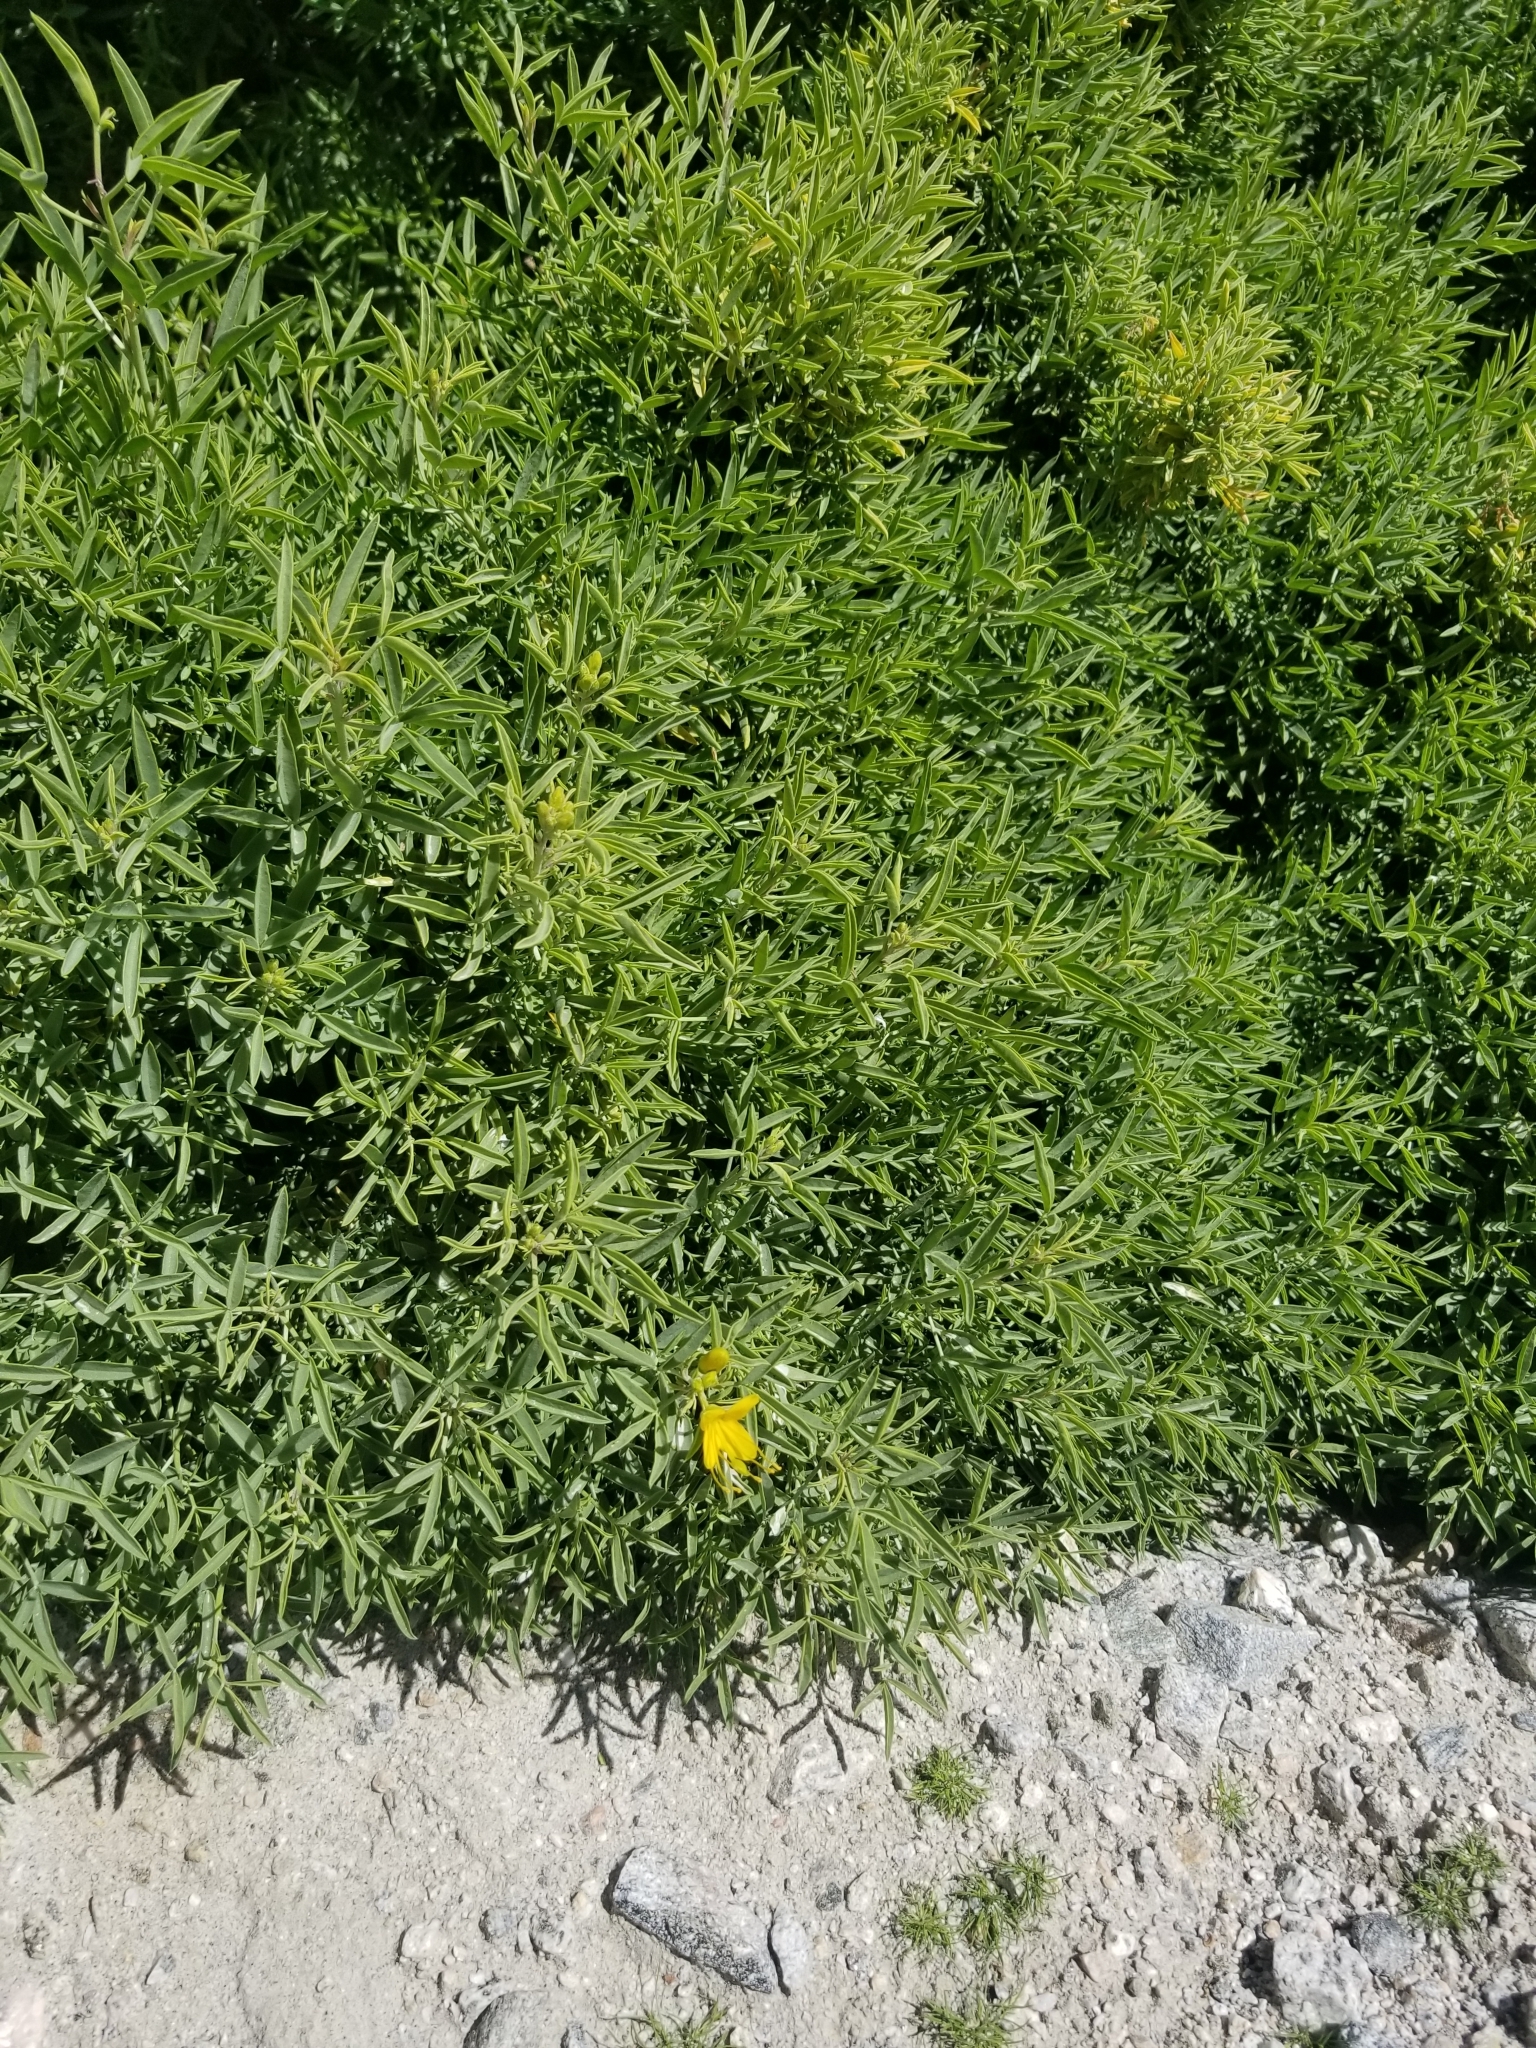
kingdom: Plantae
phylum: Tracheophyta
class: Magnoliopsida
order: Brassicales
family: Cleomaceae
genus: Cleomella
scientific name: Cleomella arborea
